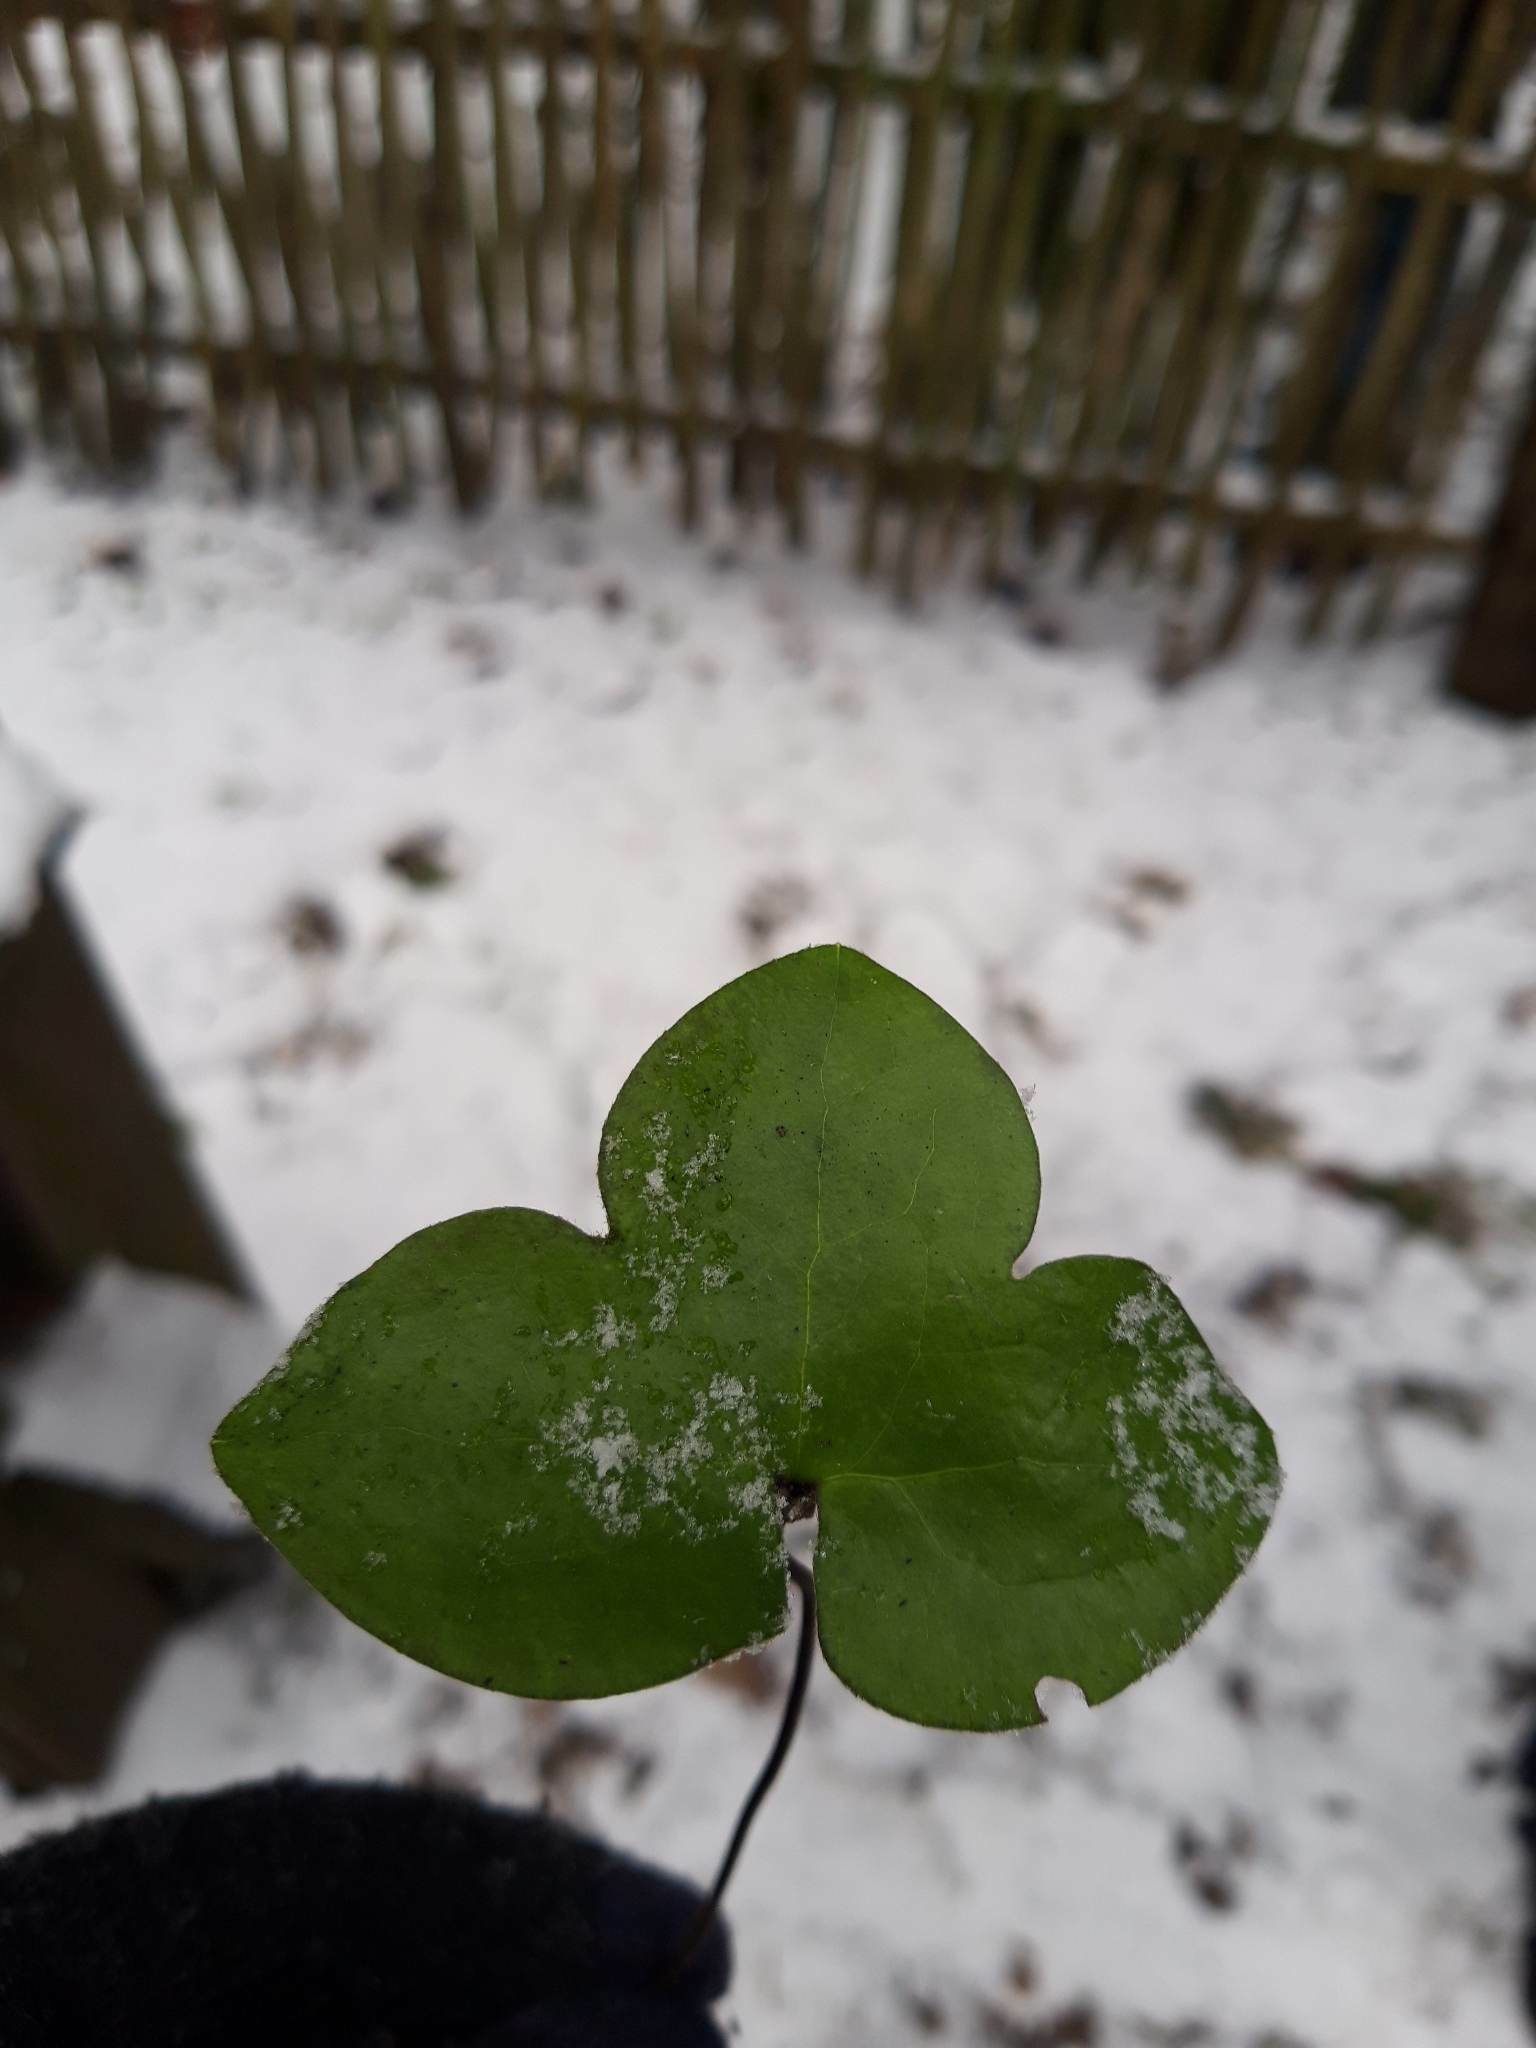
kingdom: Plantae
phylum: Tracheophyta
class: Magnoliopsida
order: Ranunculales
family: Ranunculaceae
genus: Hepatica
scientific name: Hepatica nobilis
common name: Liverleaf
